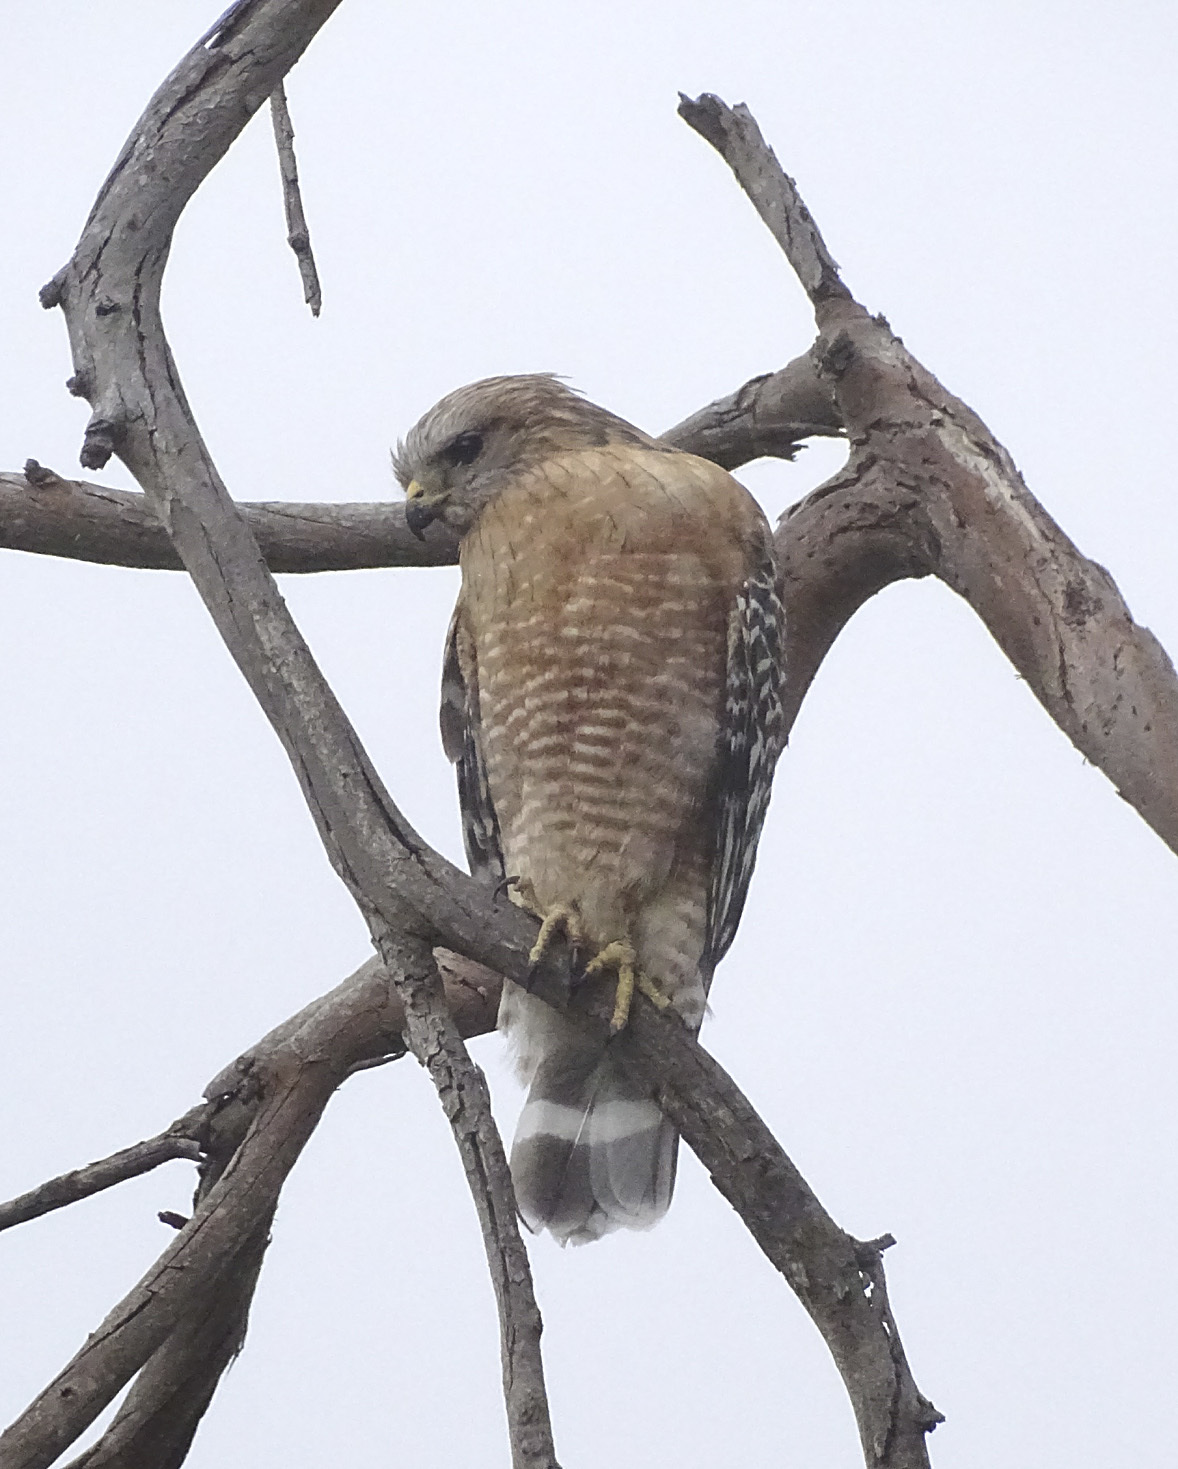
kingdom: Animalia
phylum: Chordata
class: Aves
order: Accipitriformes
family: Accipitridae
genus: Buteo
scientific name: Buteo lineatus
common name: Red-shouldered hawk
